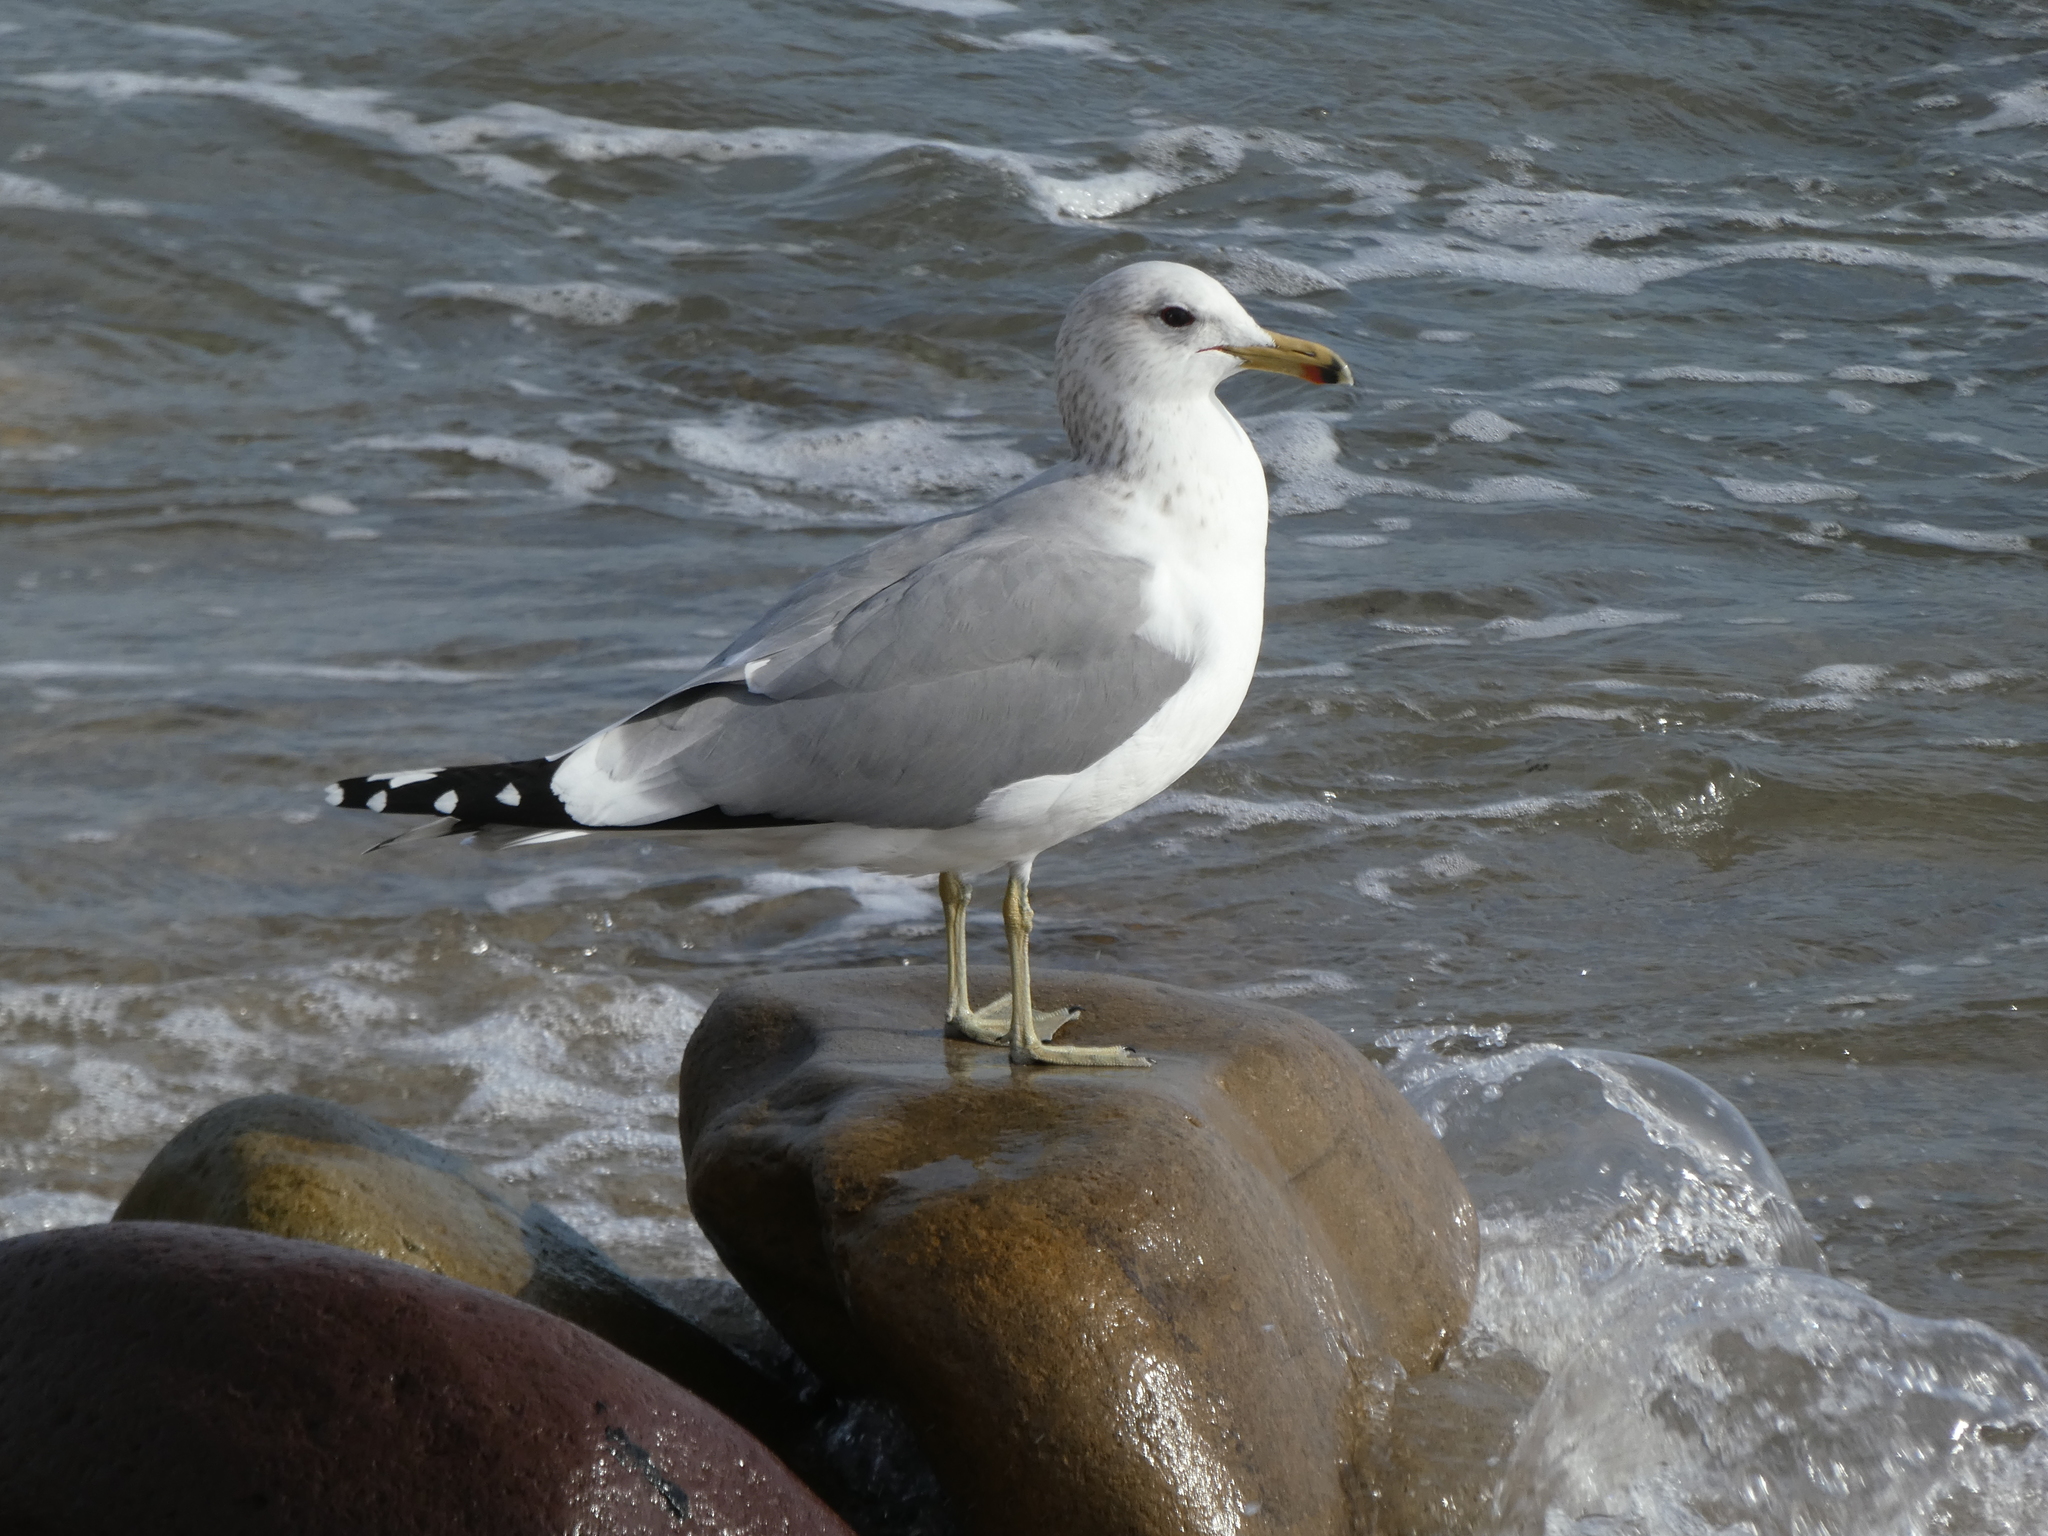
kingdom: Animalia
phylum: Chordata
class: Aves
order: Charadriiformes
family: Laridae
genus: Larus
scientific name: Larus californicus
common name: California gull
